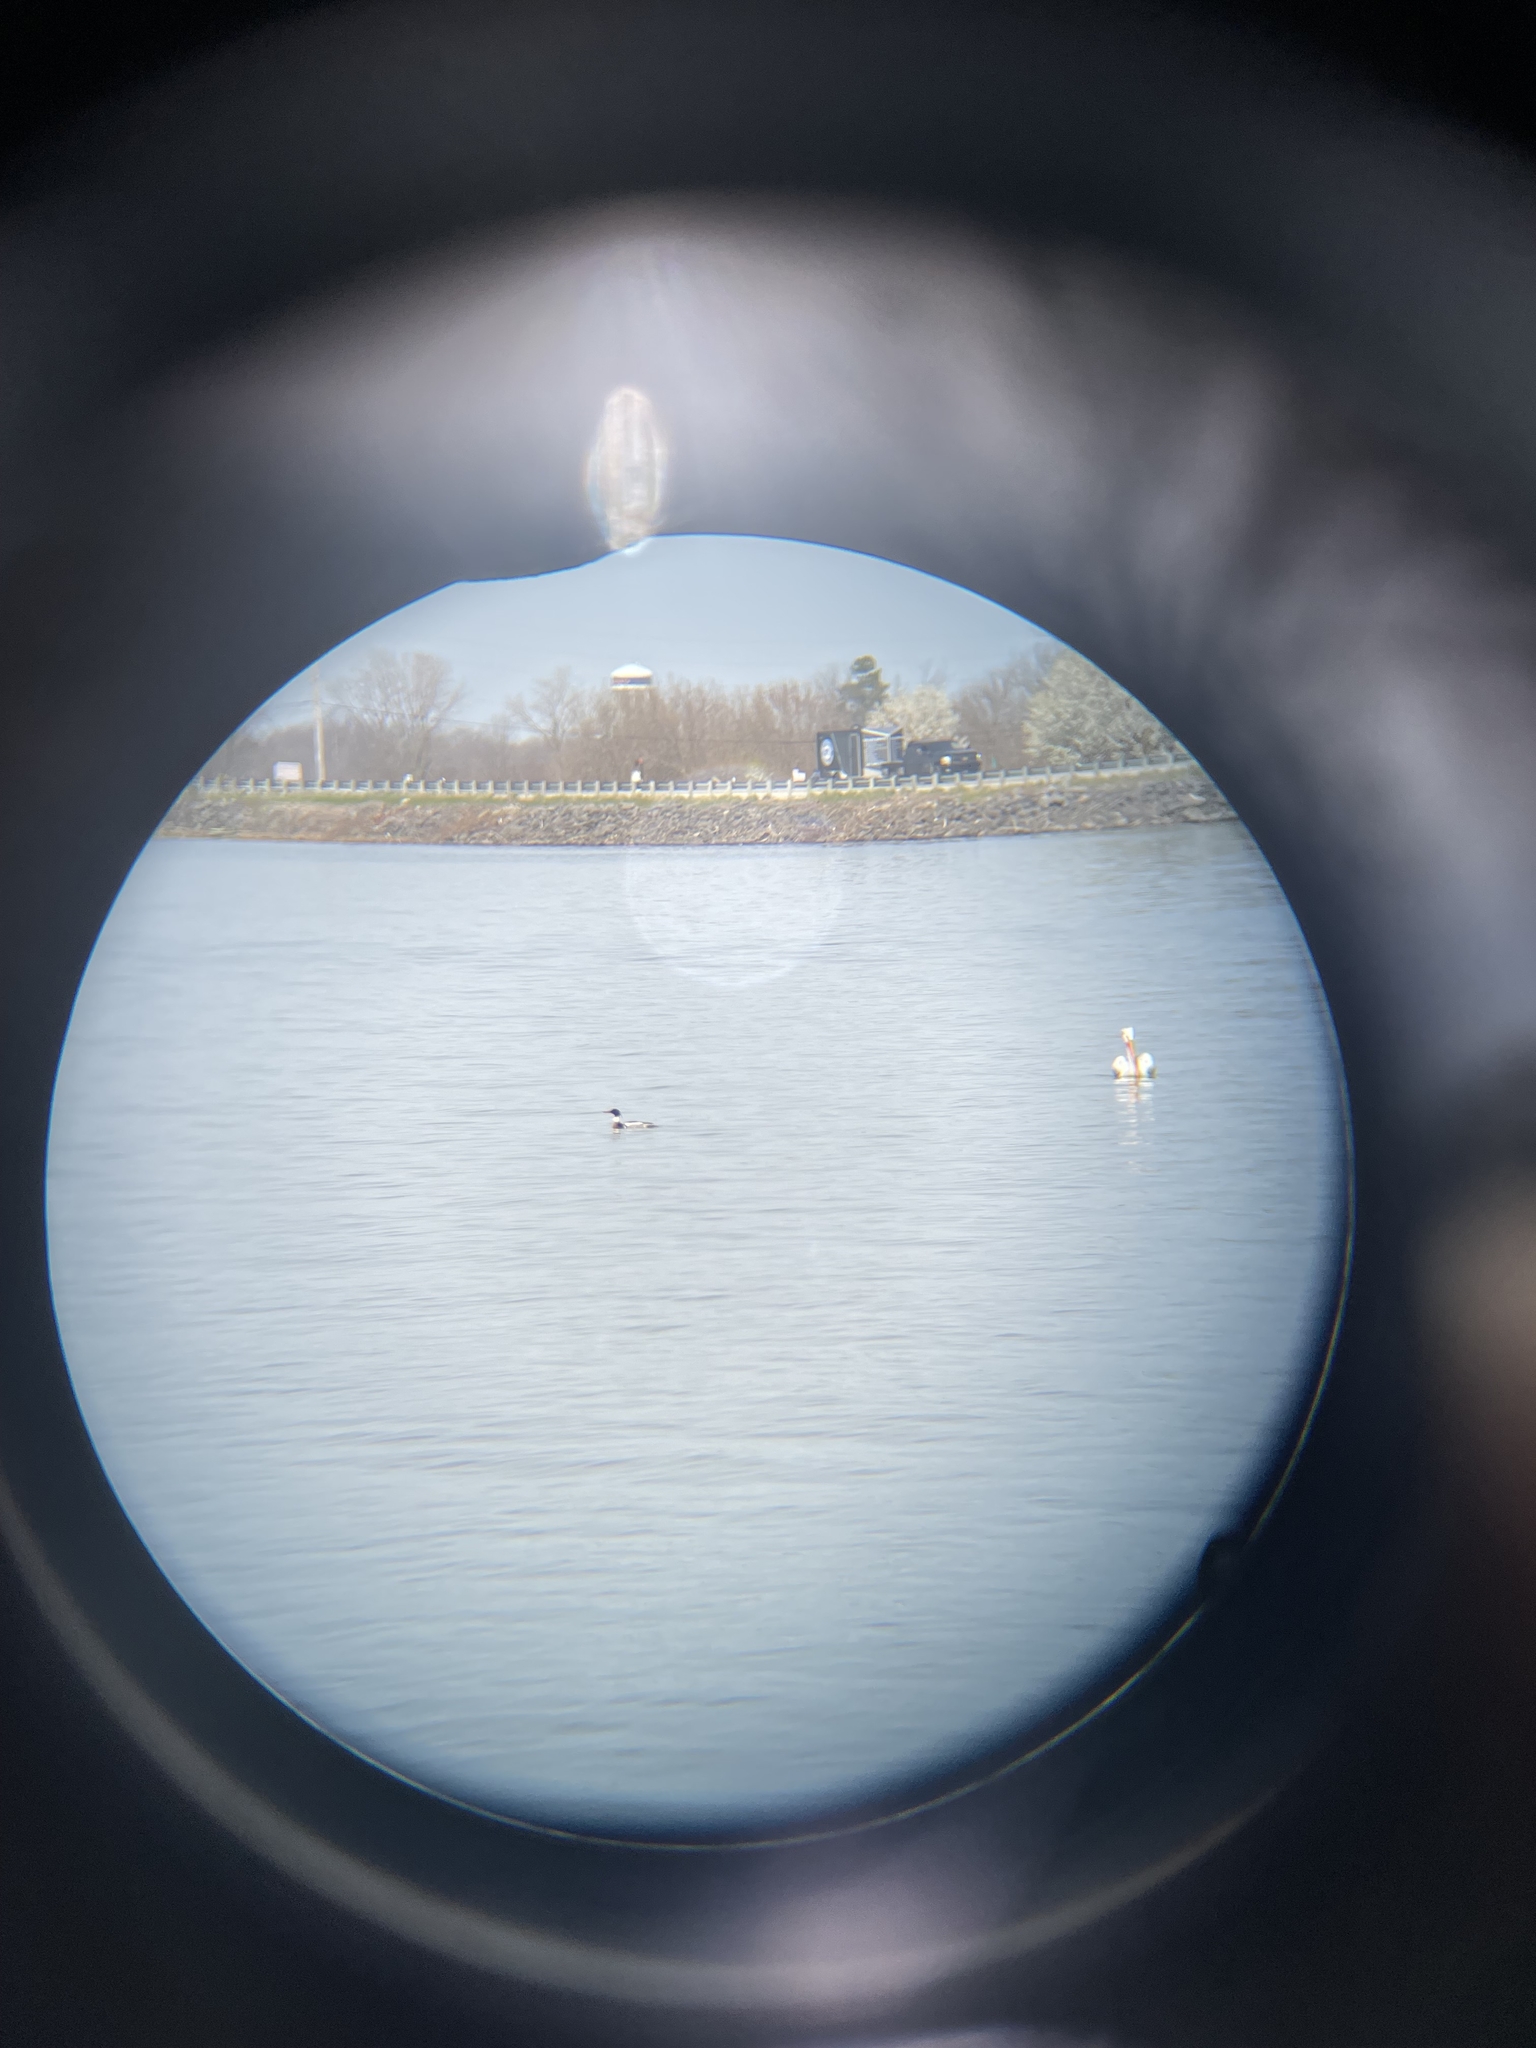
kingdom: Animalia
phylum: Chordata
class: Aves
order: Anseriformes
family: Anatidae
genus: Mergus
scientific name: Mergus serrator
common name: Red-breasted merganser
